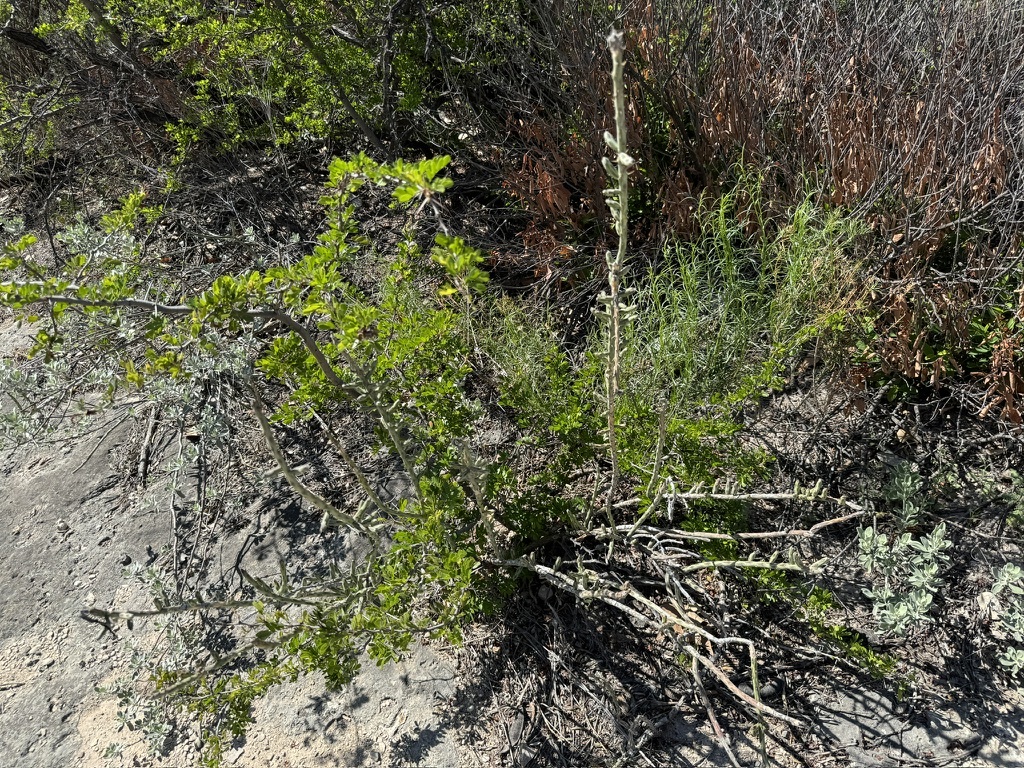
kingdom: Plantae
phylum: Tracheophyta
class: Magnoliopsida
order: Caryophyllales
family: Cactaceae
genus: Cylindropuntia
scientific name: Cylindropuntia leptocaulis
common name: Christmas cactus
